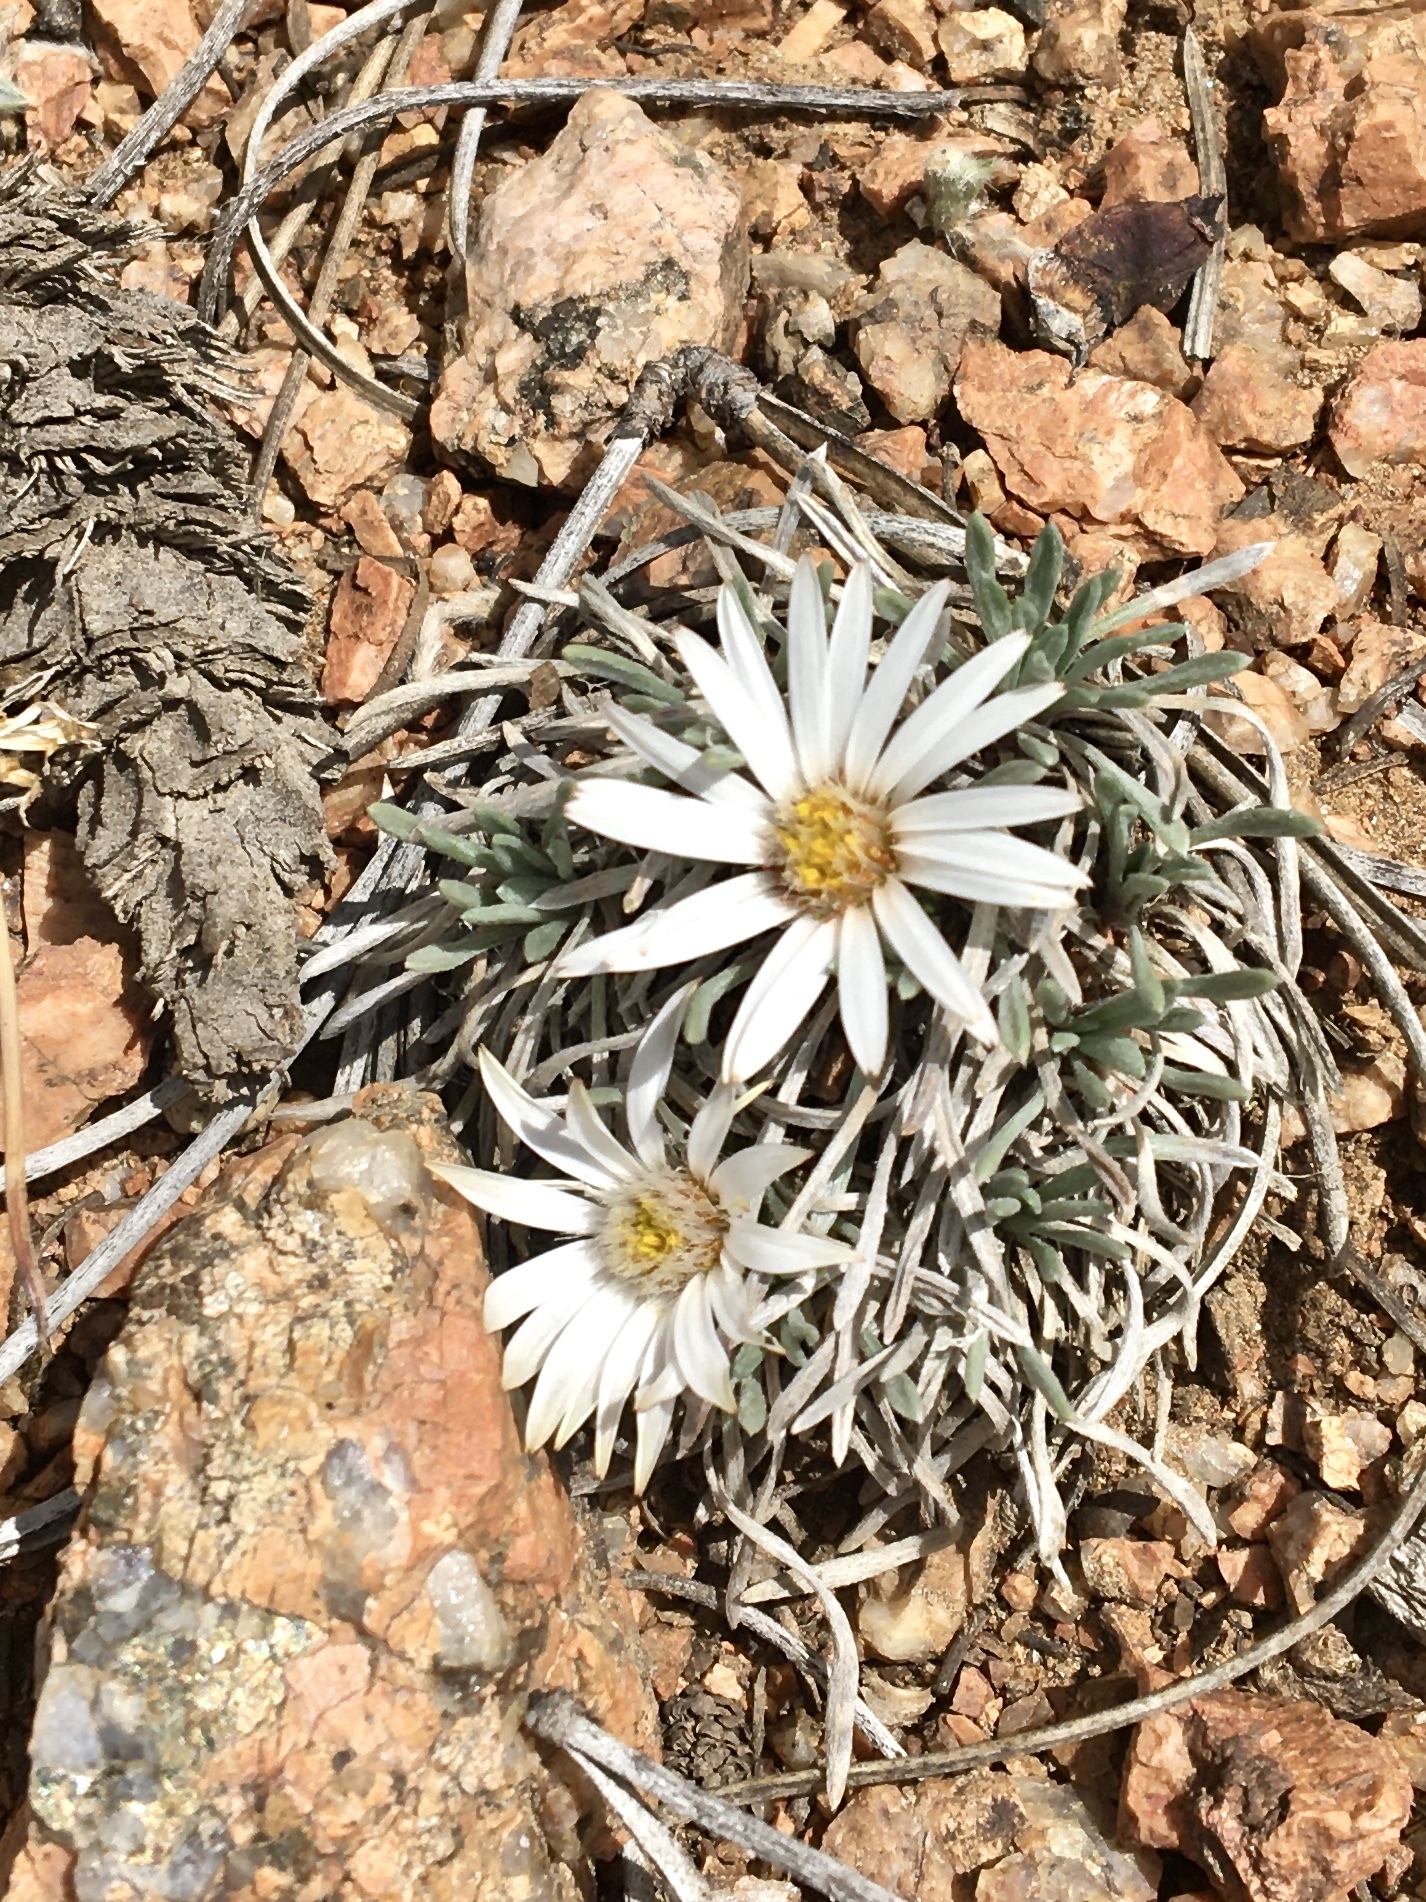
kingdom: Plantae
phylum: Tracheophyta
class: Magnoliopsida
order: Asterales
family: Asteraceae
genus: Townsendia
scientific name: Townsendia hookeri
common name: Hooker's townsend daisy
